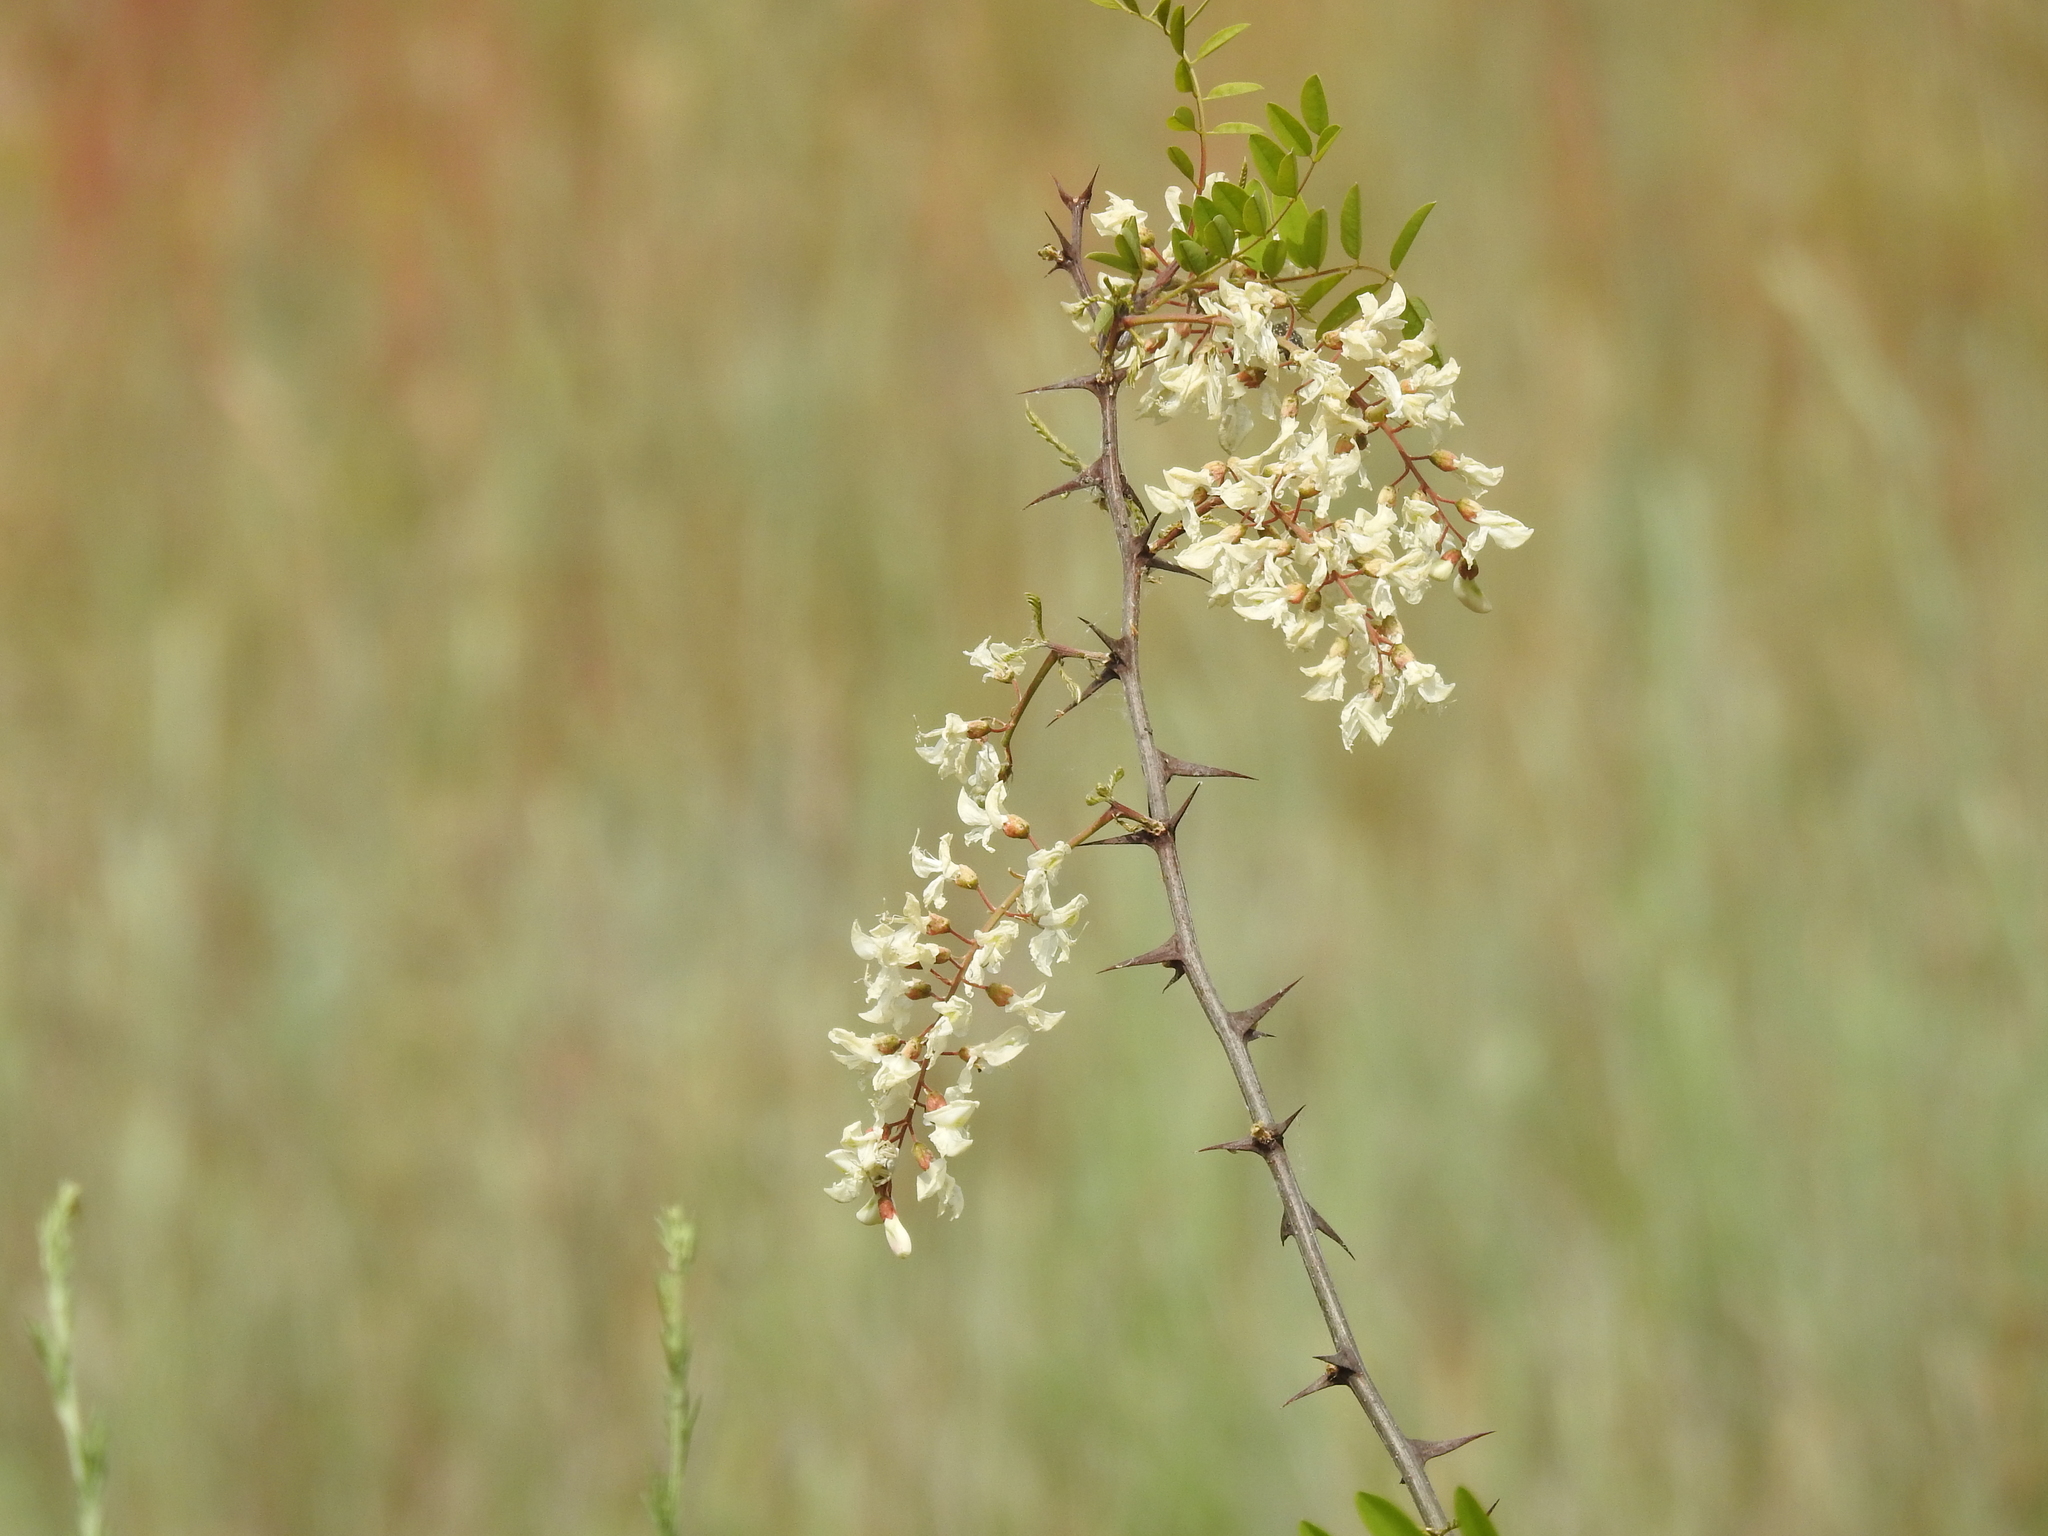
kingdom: Plantae
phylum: Tracheophyta
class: Magnoliopsida
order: Fabales
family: Fabaceae
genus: Robinia
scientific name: Robinia pseudoacacia
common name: Black locust
